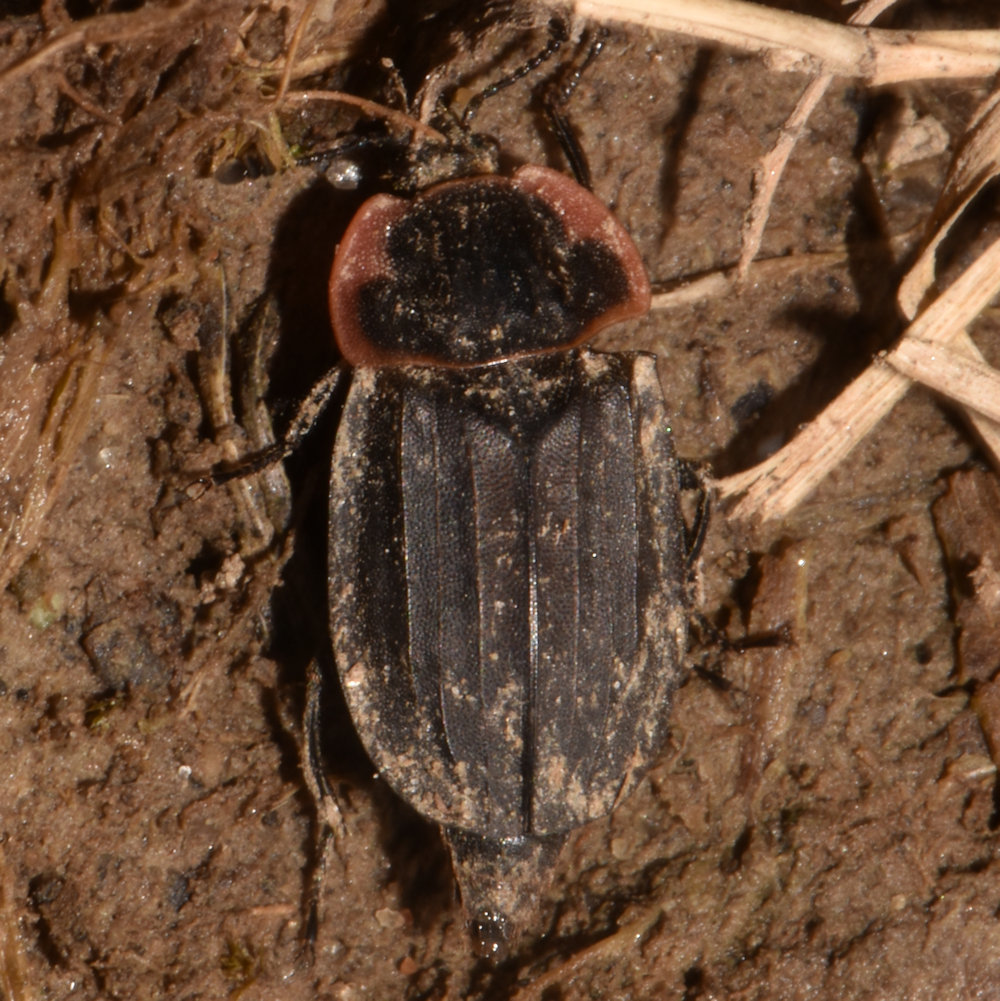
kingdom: Animalia
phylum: Arthropoda
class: Insecta
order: Coleoptera
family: Staphylinidae
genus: Oiceoptoma
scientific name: Oiceoptoma noveboracense
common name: Margined carrion beetle
